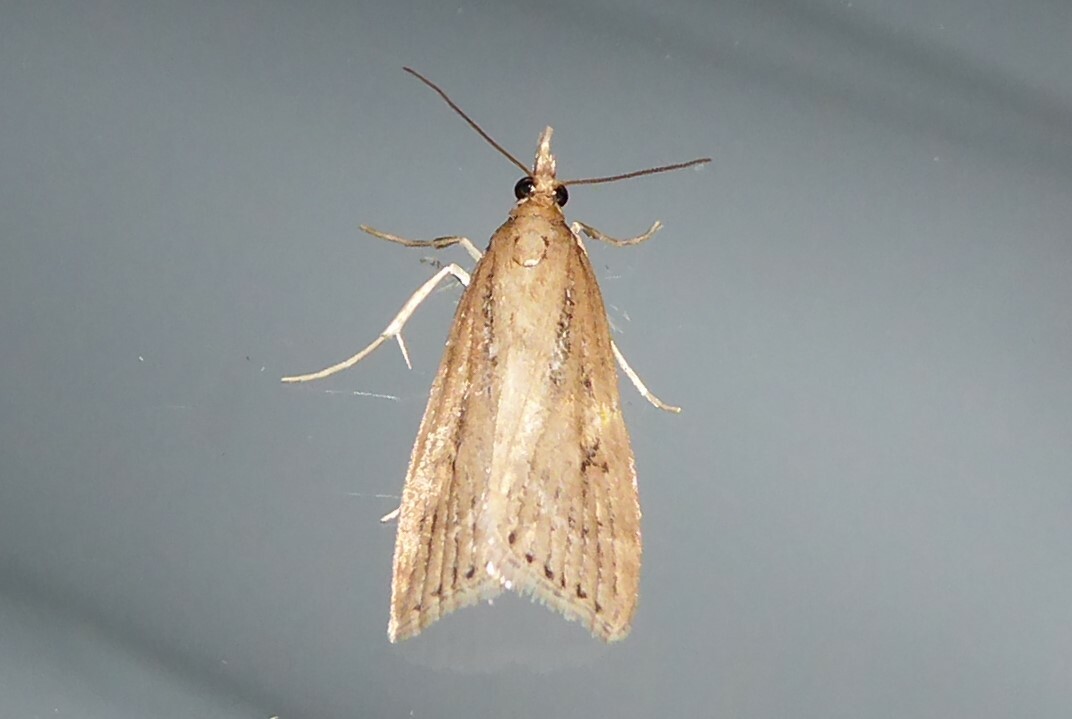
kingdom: Animalia
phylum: Arthropoda
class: Insecta
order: Lepidoptera
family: Crambidae
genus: Eudonia
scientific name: Eudonia octophora
